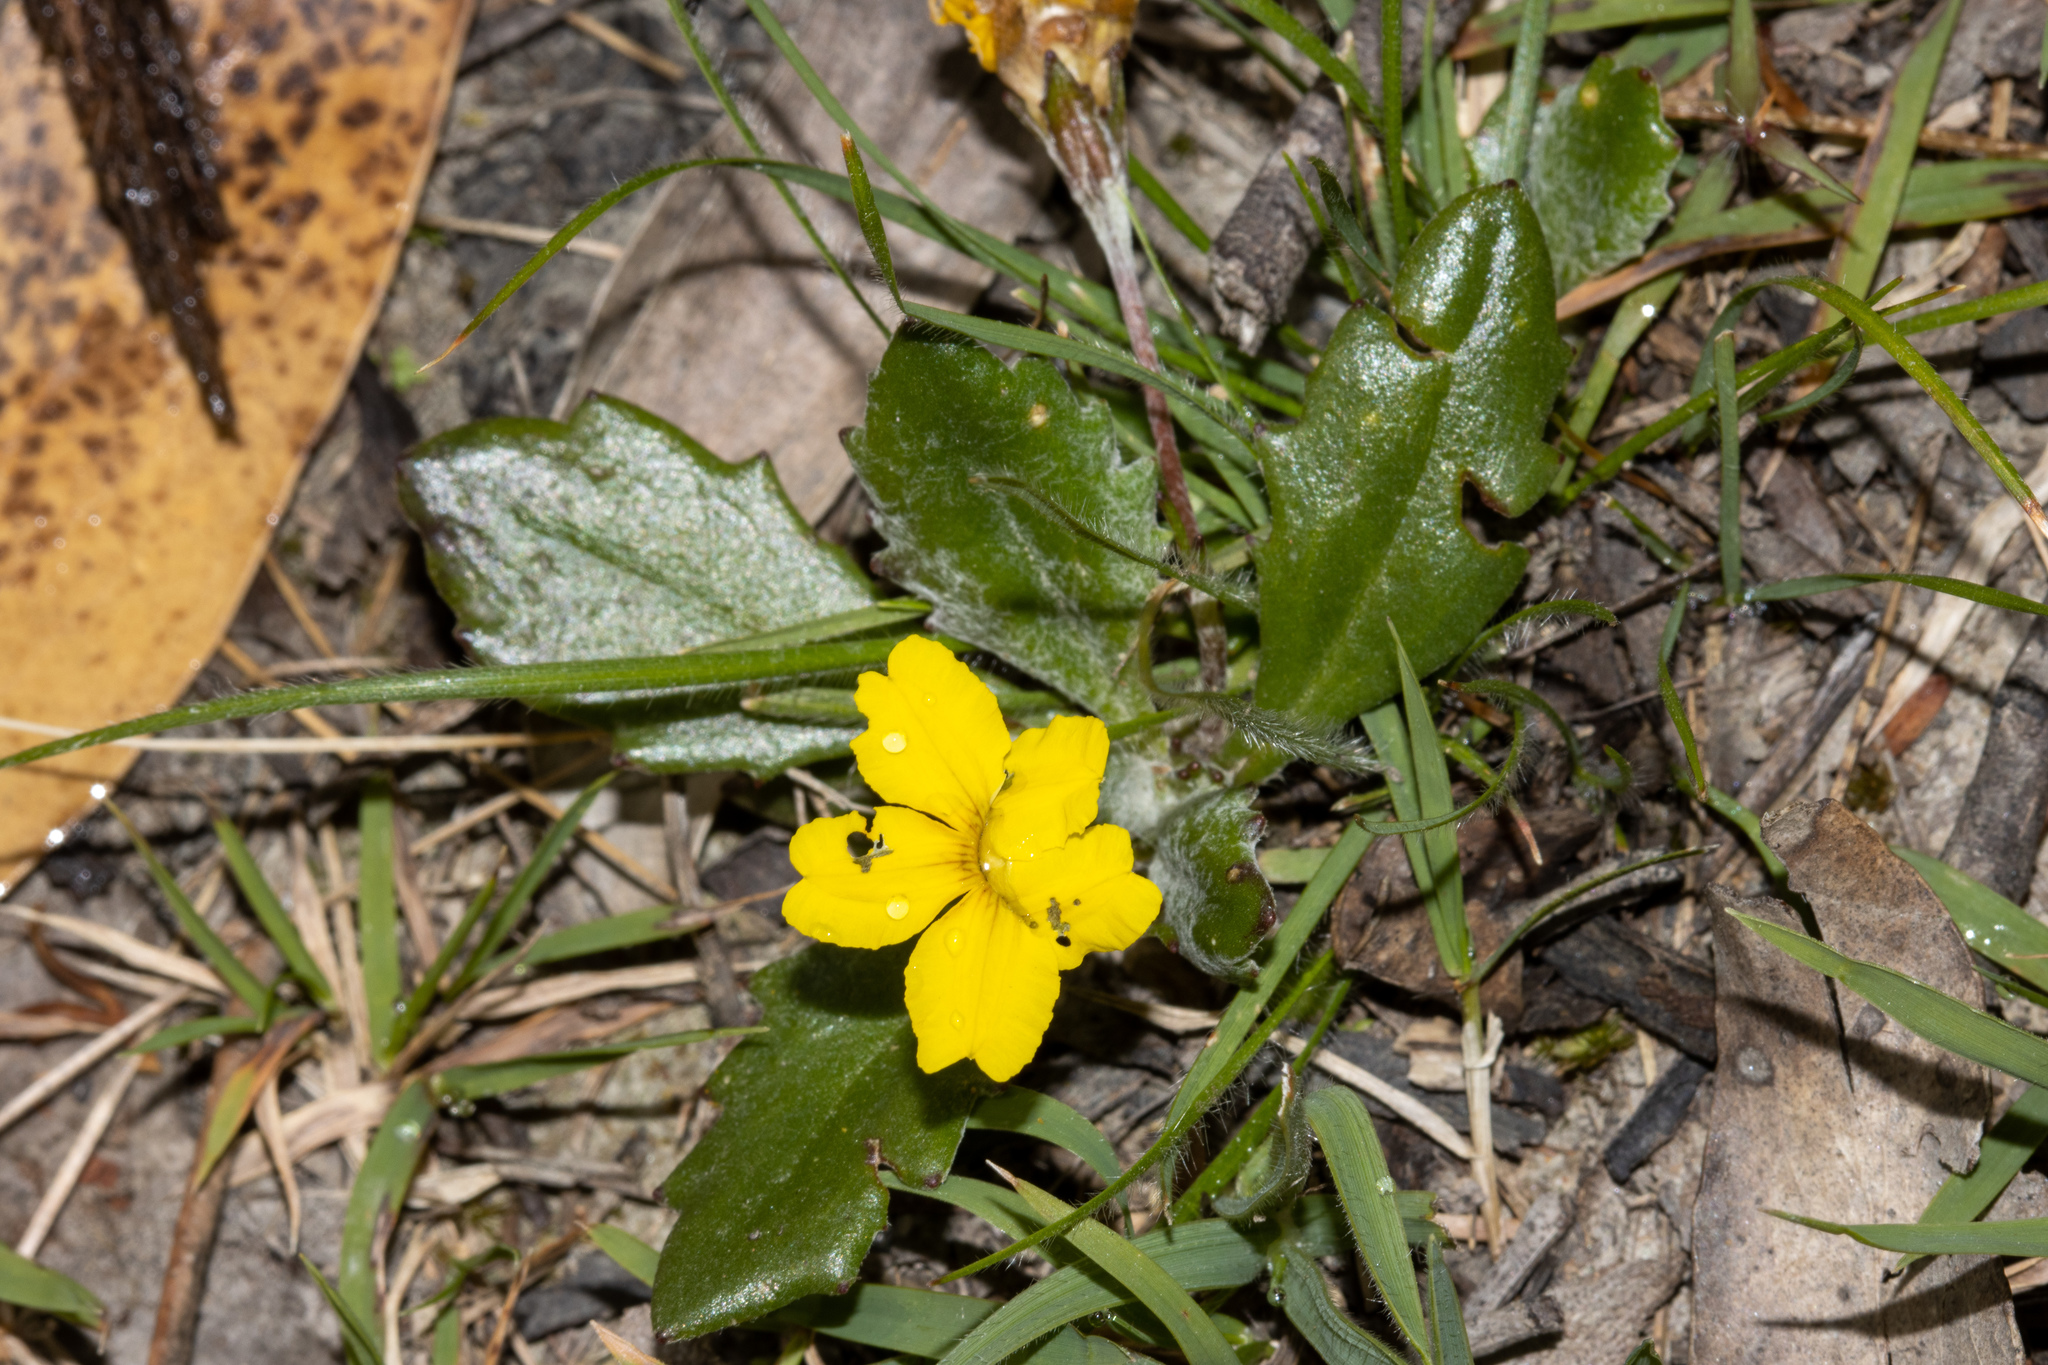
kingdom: Plantae
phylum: Tracheophyta
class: Magnoliopsida
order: Asterales
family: Goodeniaceae
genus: Goodenia
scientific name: Goodenia blackiana
